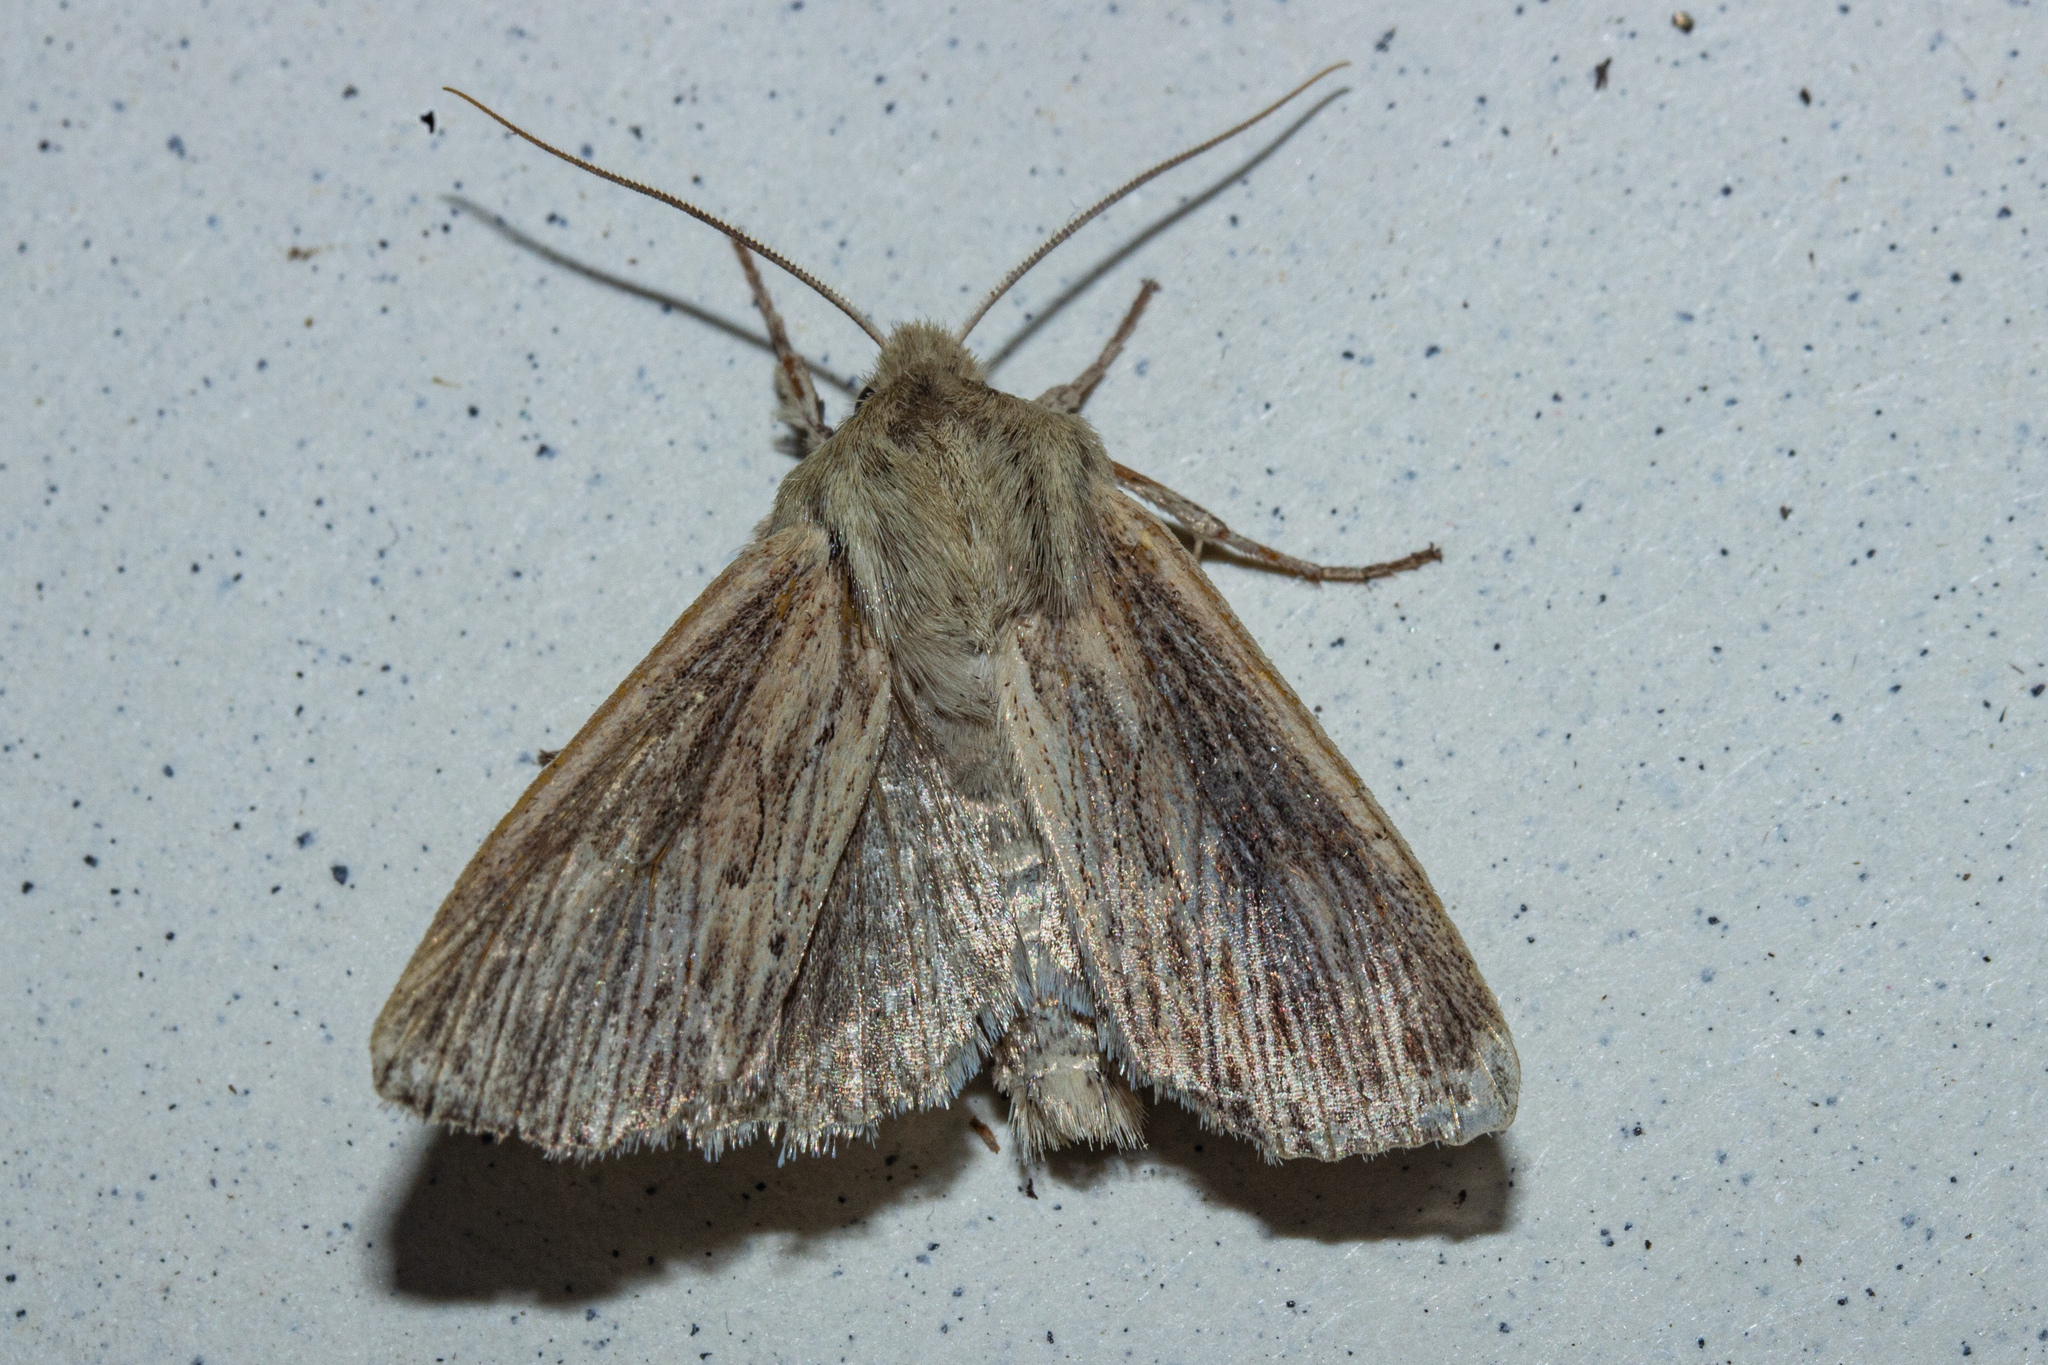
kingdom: Animalia
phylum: Arthropoda
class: Insecta
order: Lepidoptera
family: Noctuidae
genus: Ichneutica
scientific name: Ichneutica arotis
